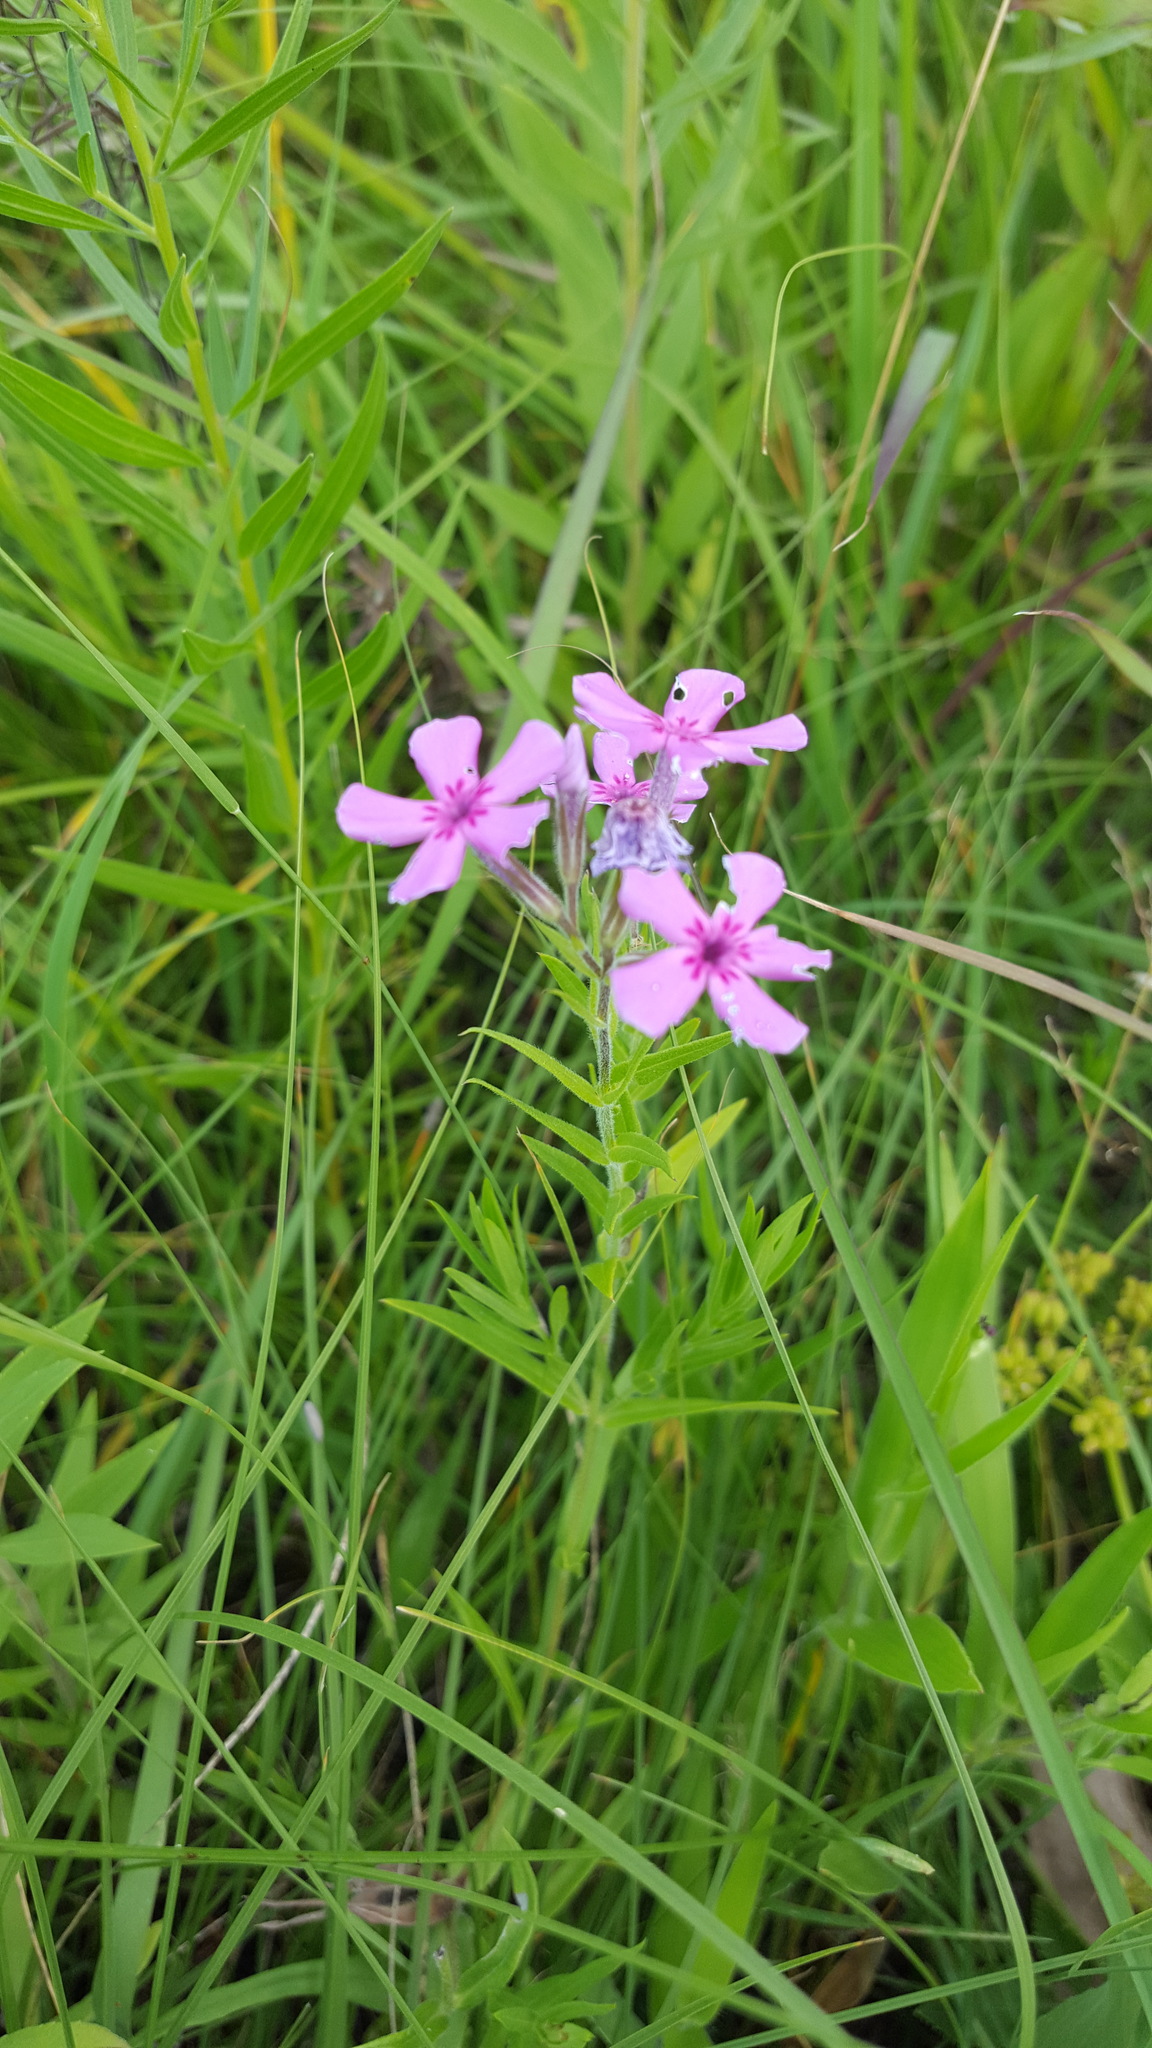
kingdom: Plantae
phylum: Tracheophyta
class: Magnoliopsida
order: Ericales
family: Polemoniaceae
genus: Phlox
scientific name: Phlox pilosa
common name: Prairie phlox
